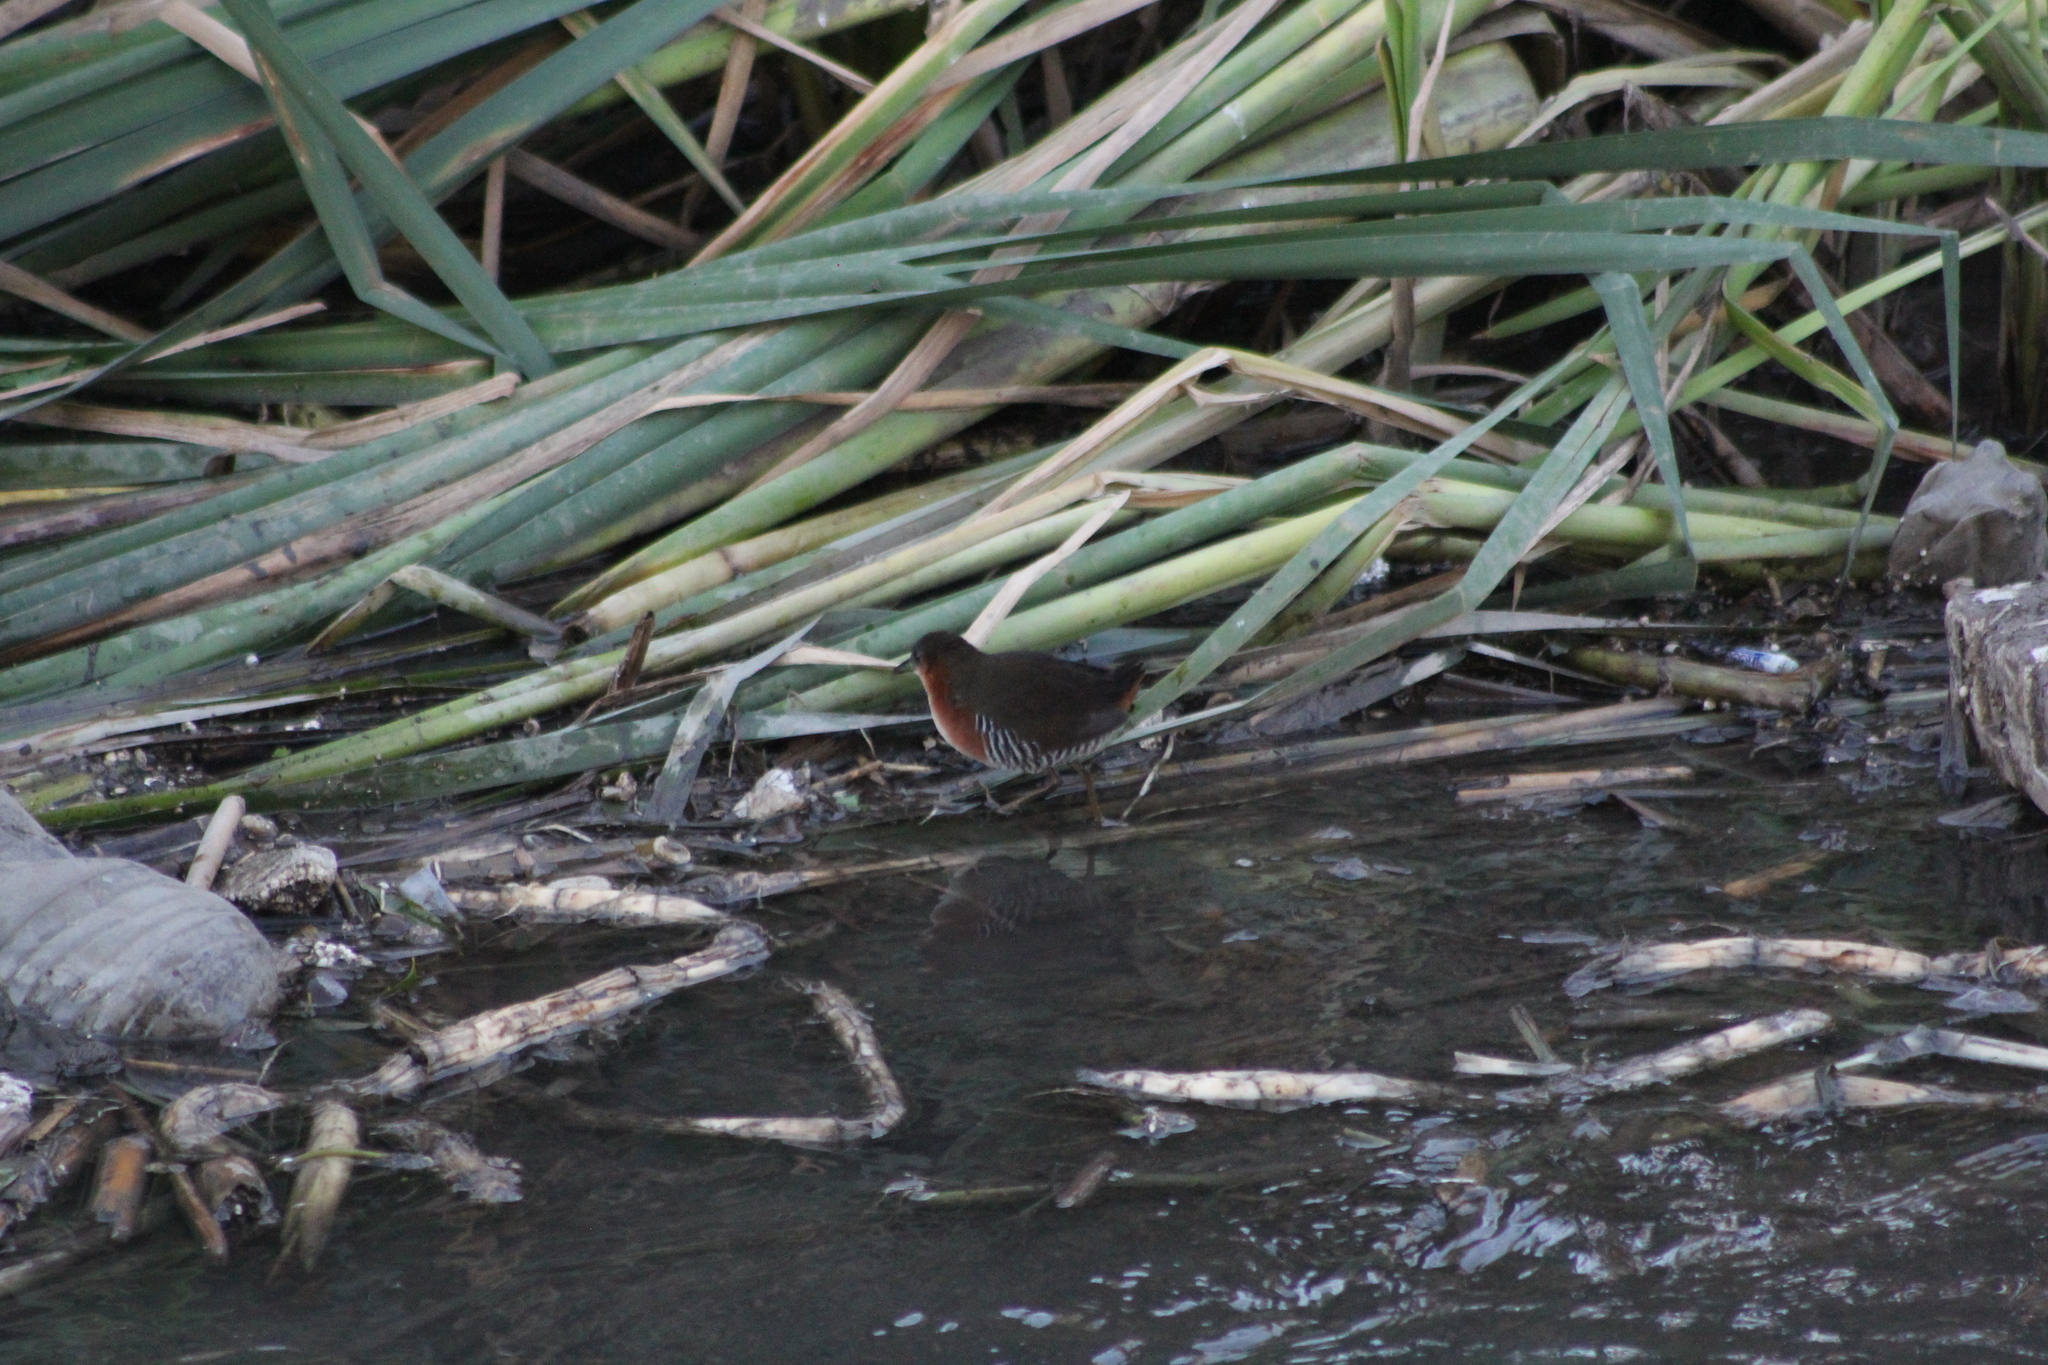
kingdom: Animalia
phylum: Chordata
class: Aves
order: Gruiformes
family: Rallidae
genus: Laterallus
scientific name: Laterallus melanophaius
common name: Rufous-sided crake
